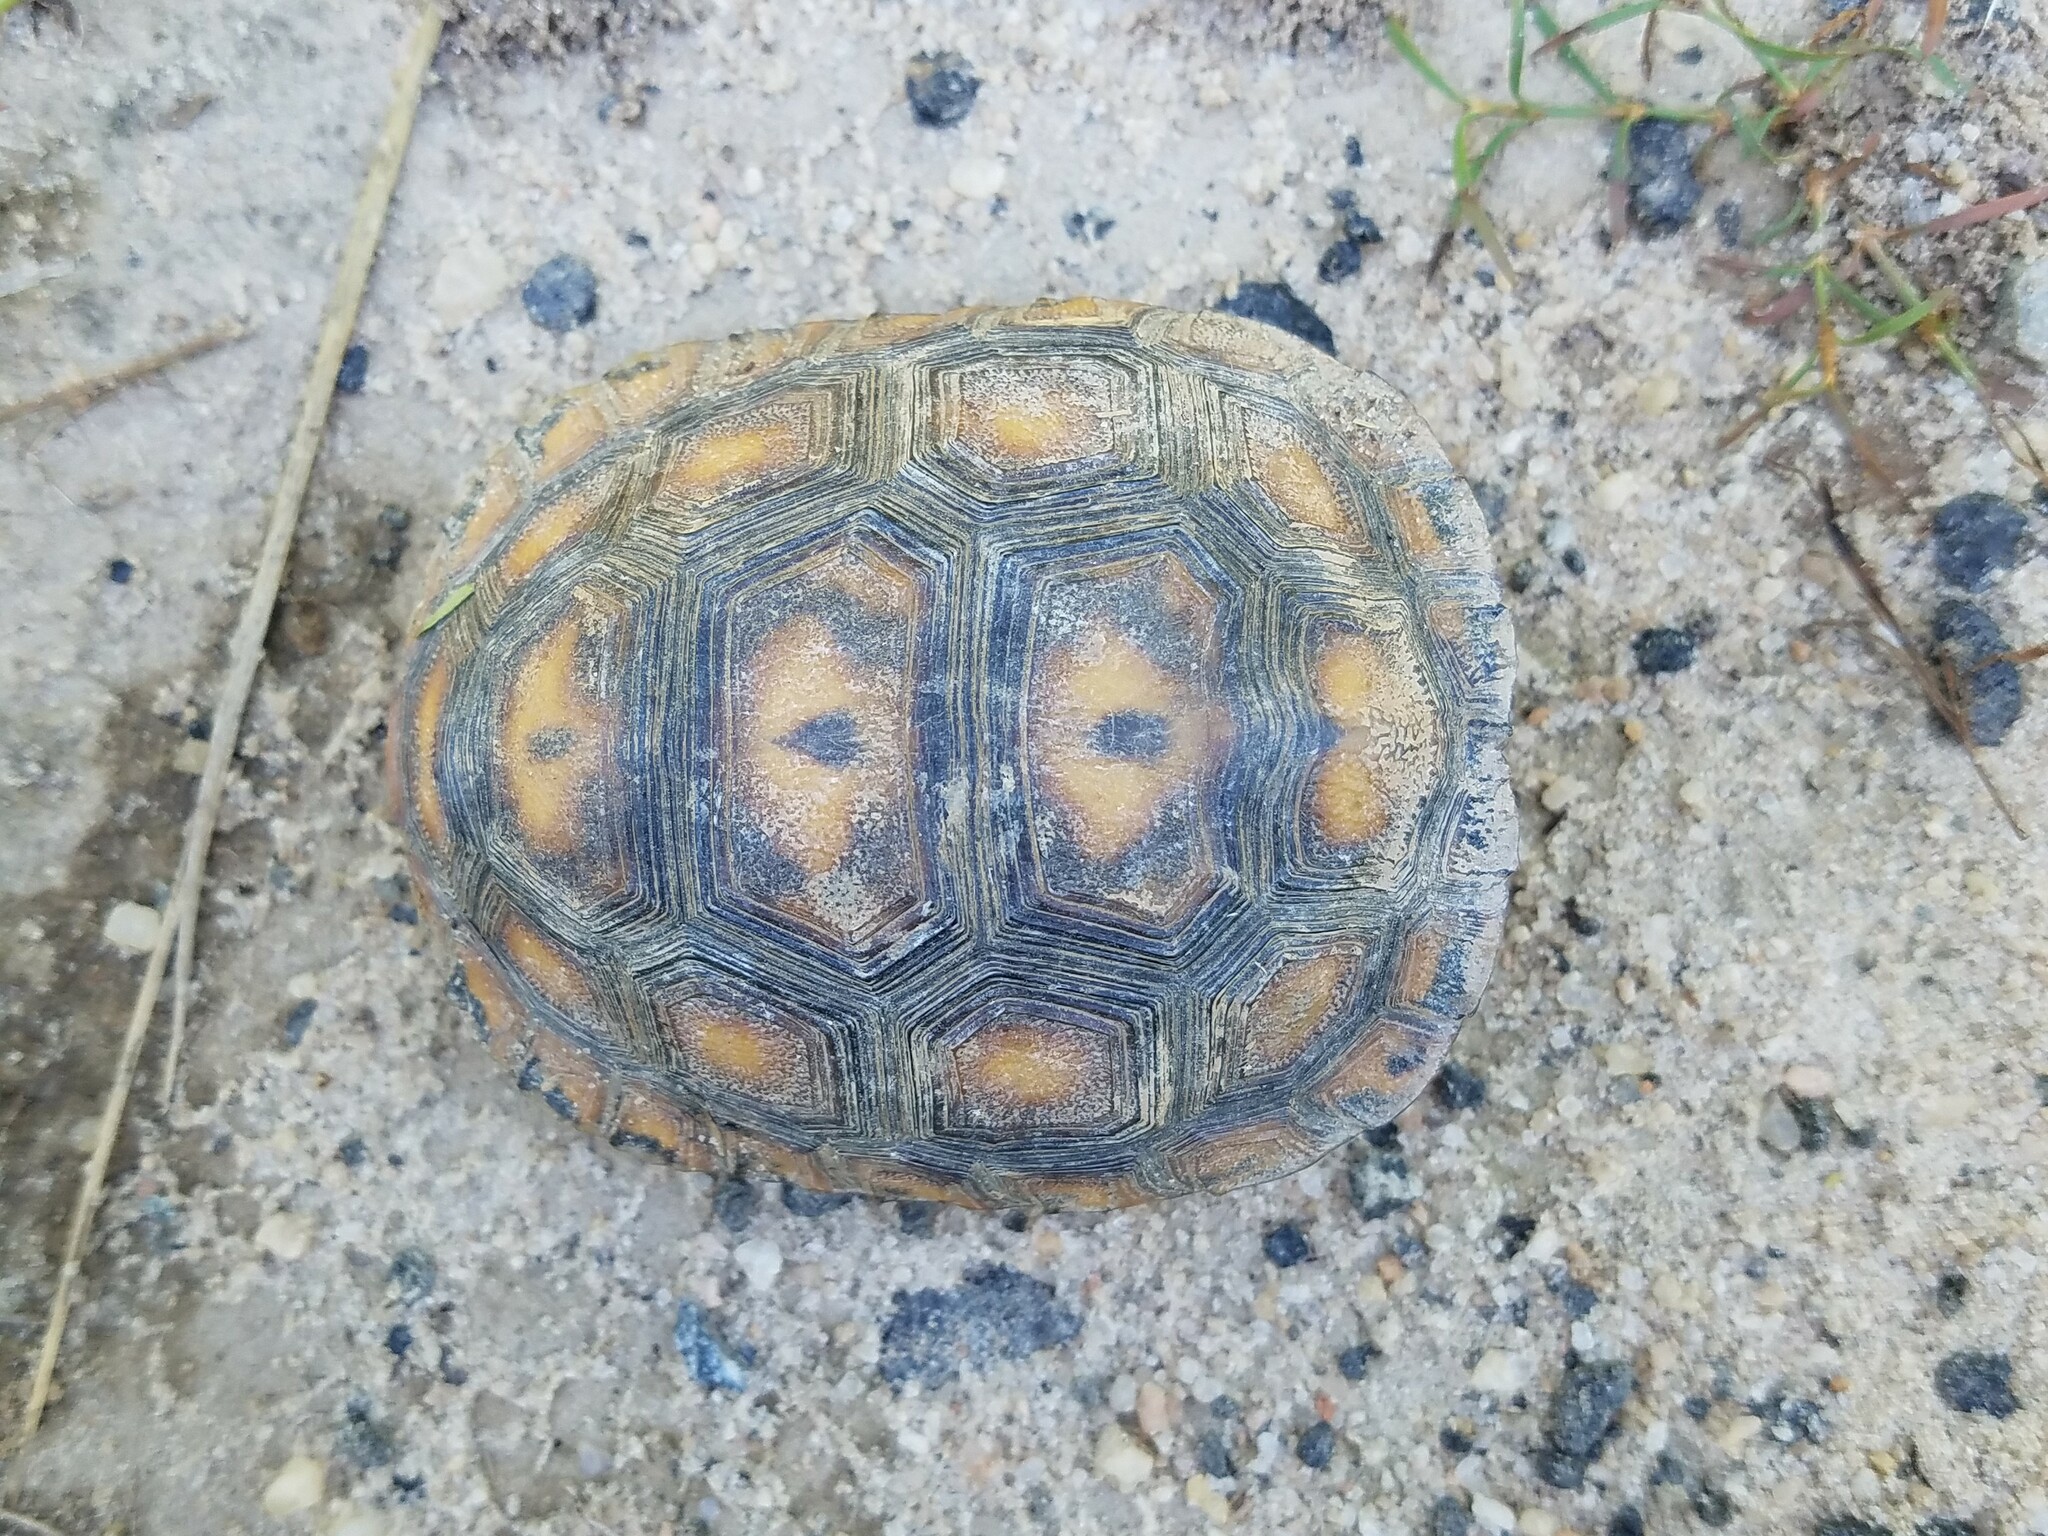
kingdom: Animalia
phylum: Chordata
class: Testudines
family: Testudinidae
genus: Gopherus
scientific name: Gopherus polyphemus
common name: Florida gopher tortoise
